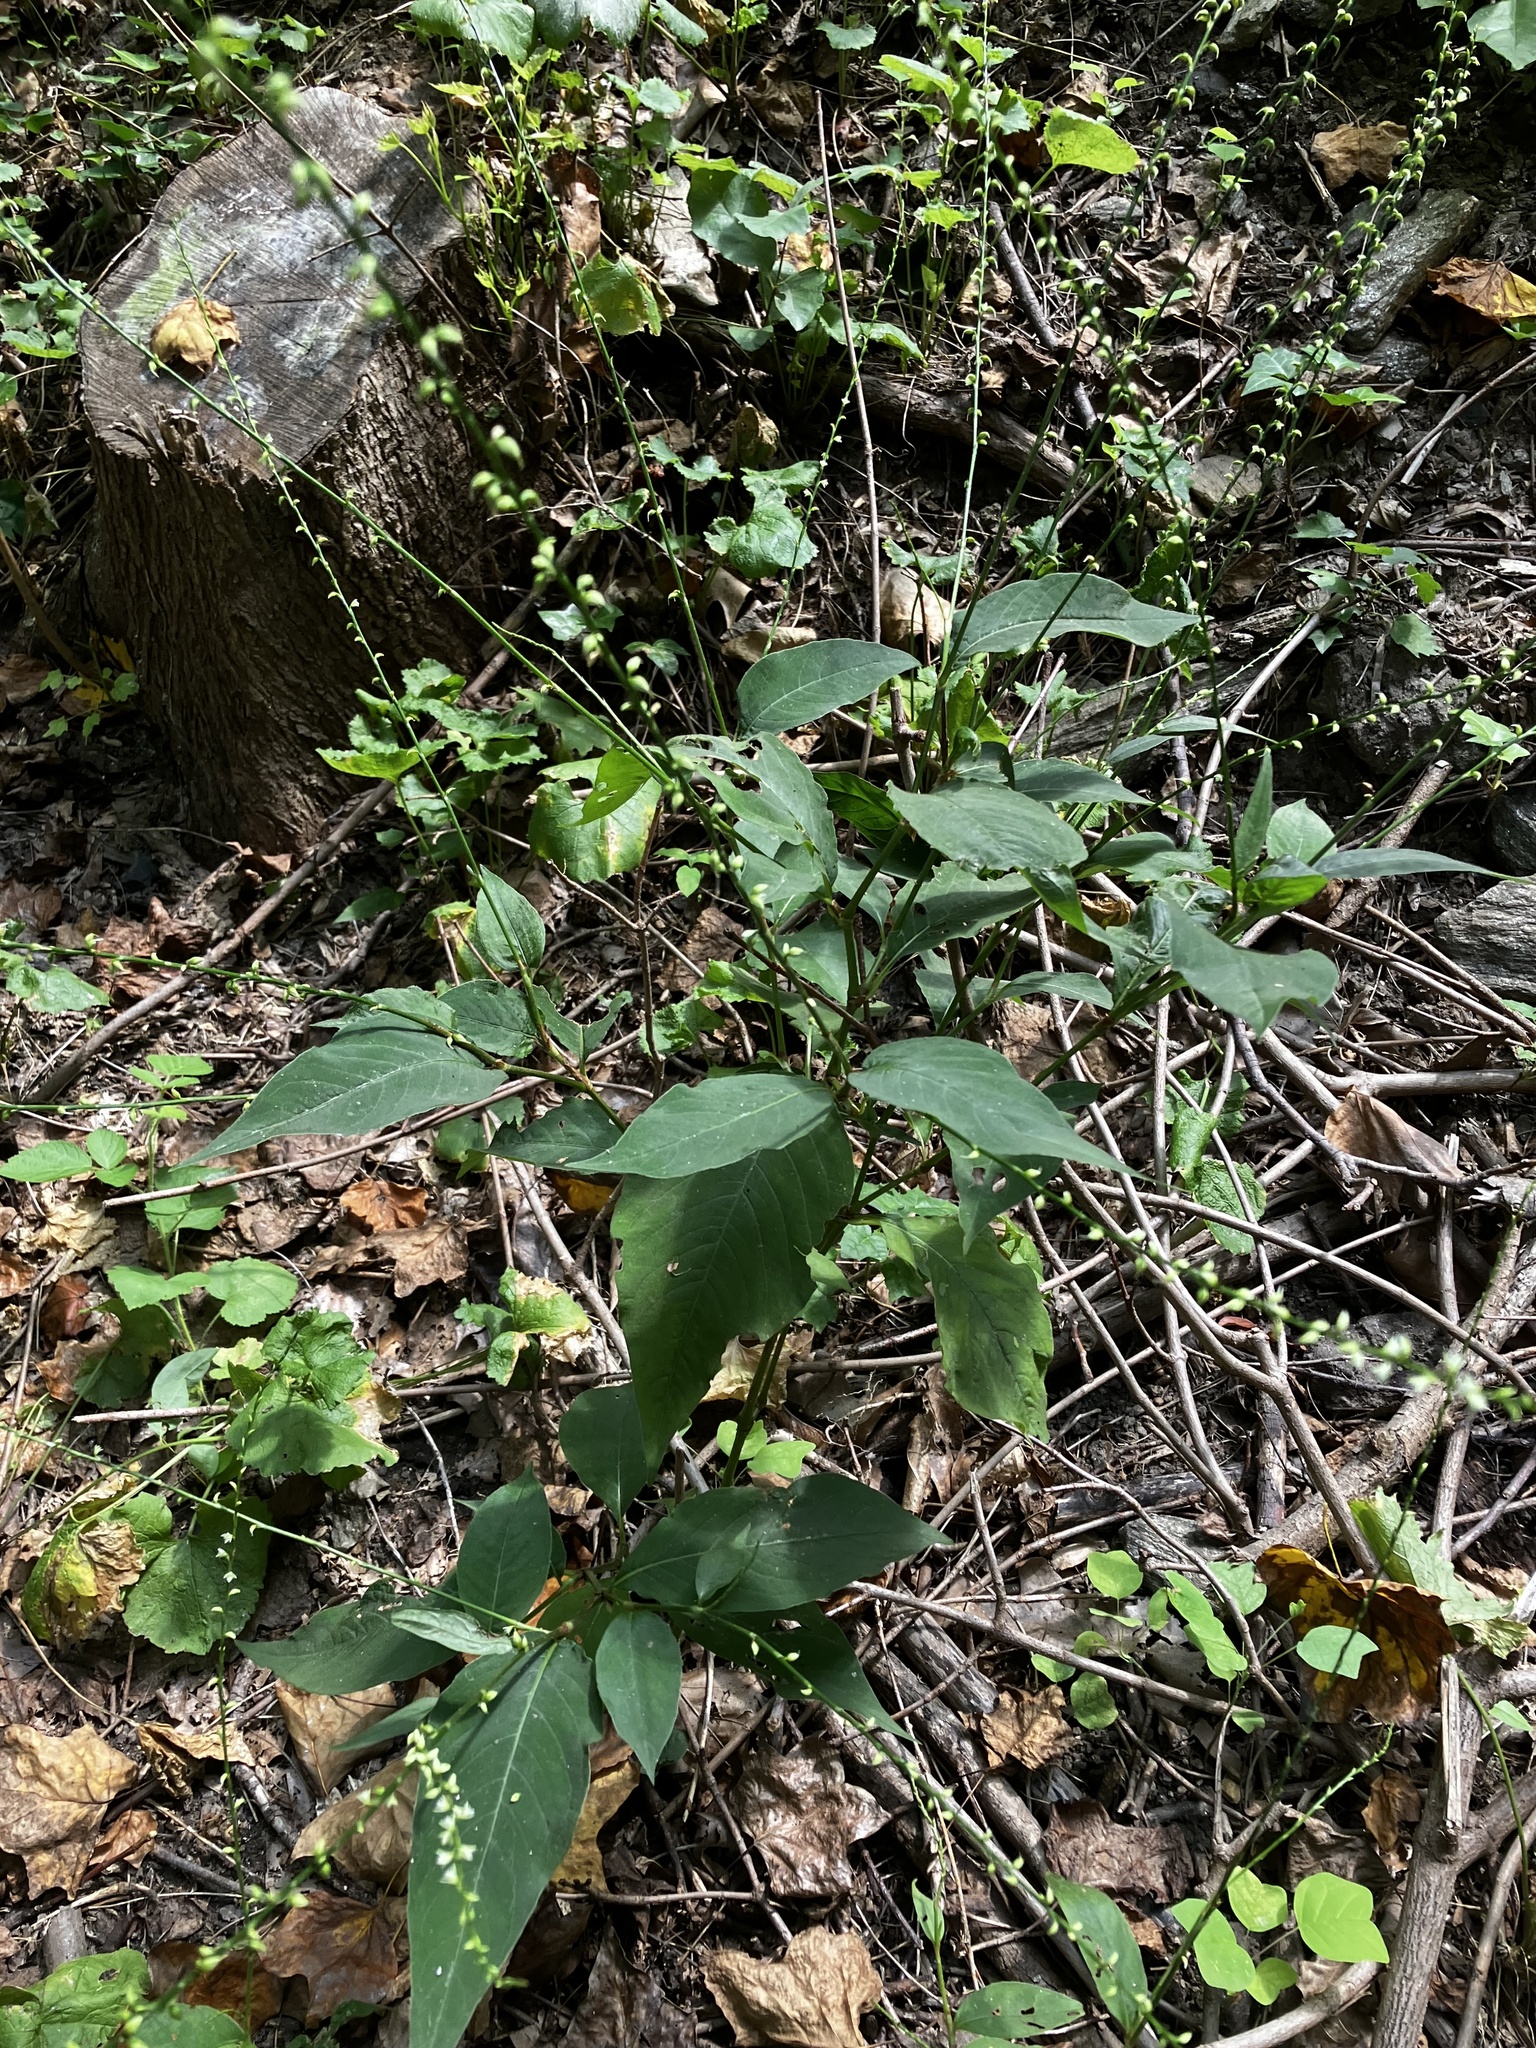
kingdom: Plantae
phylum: Tracheophyta
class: Magnoliopsida
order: Caryophyllales
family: Polygonaceae
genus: Persicaria
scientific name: Persicaria virginiana
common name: Jumpseed
